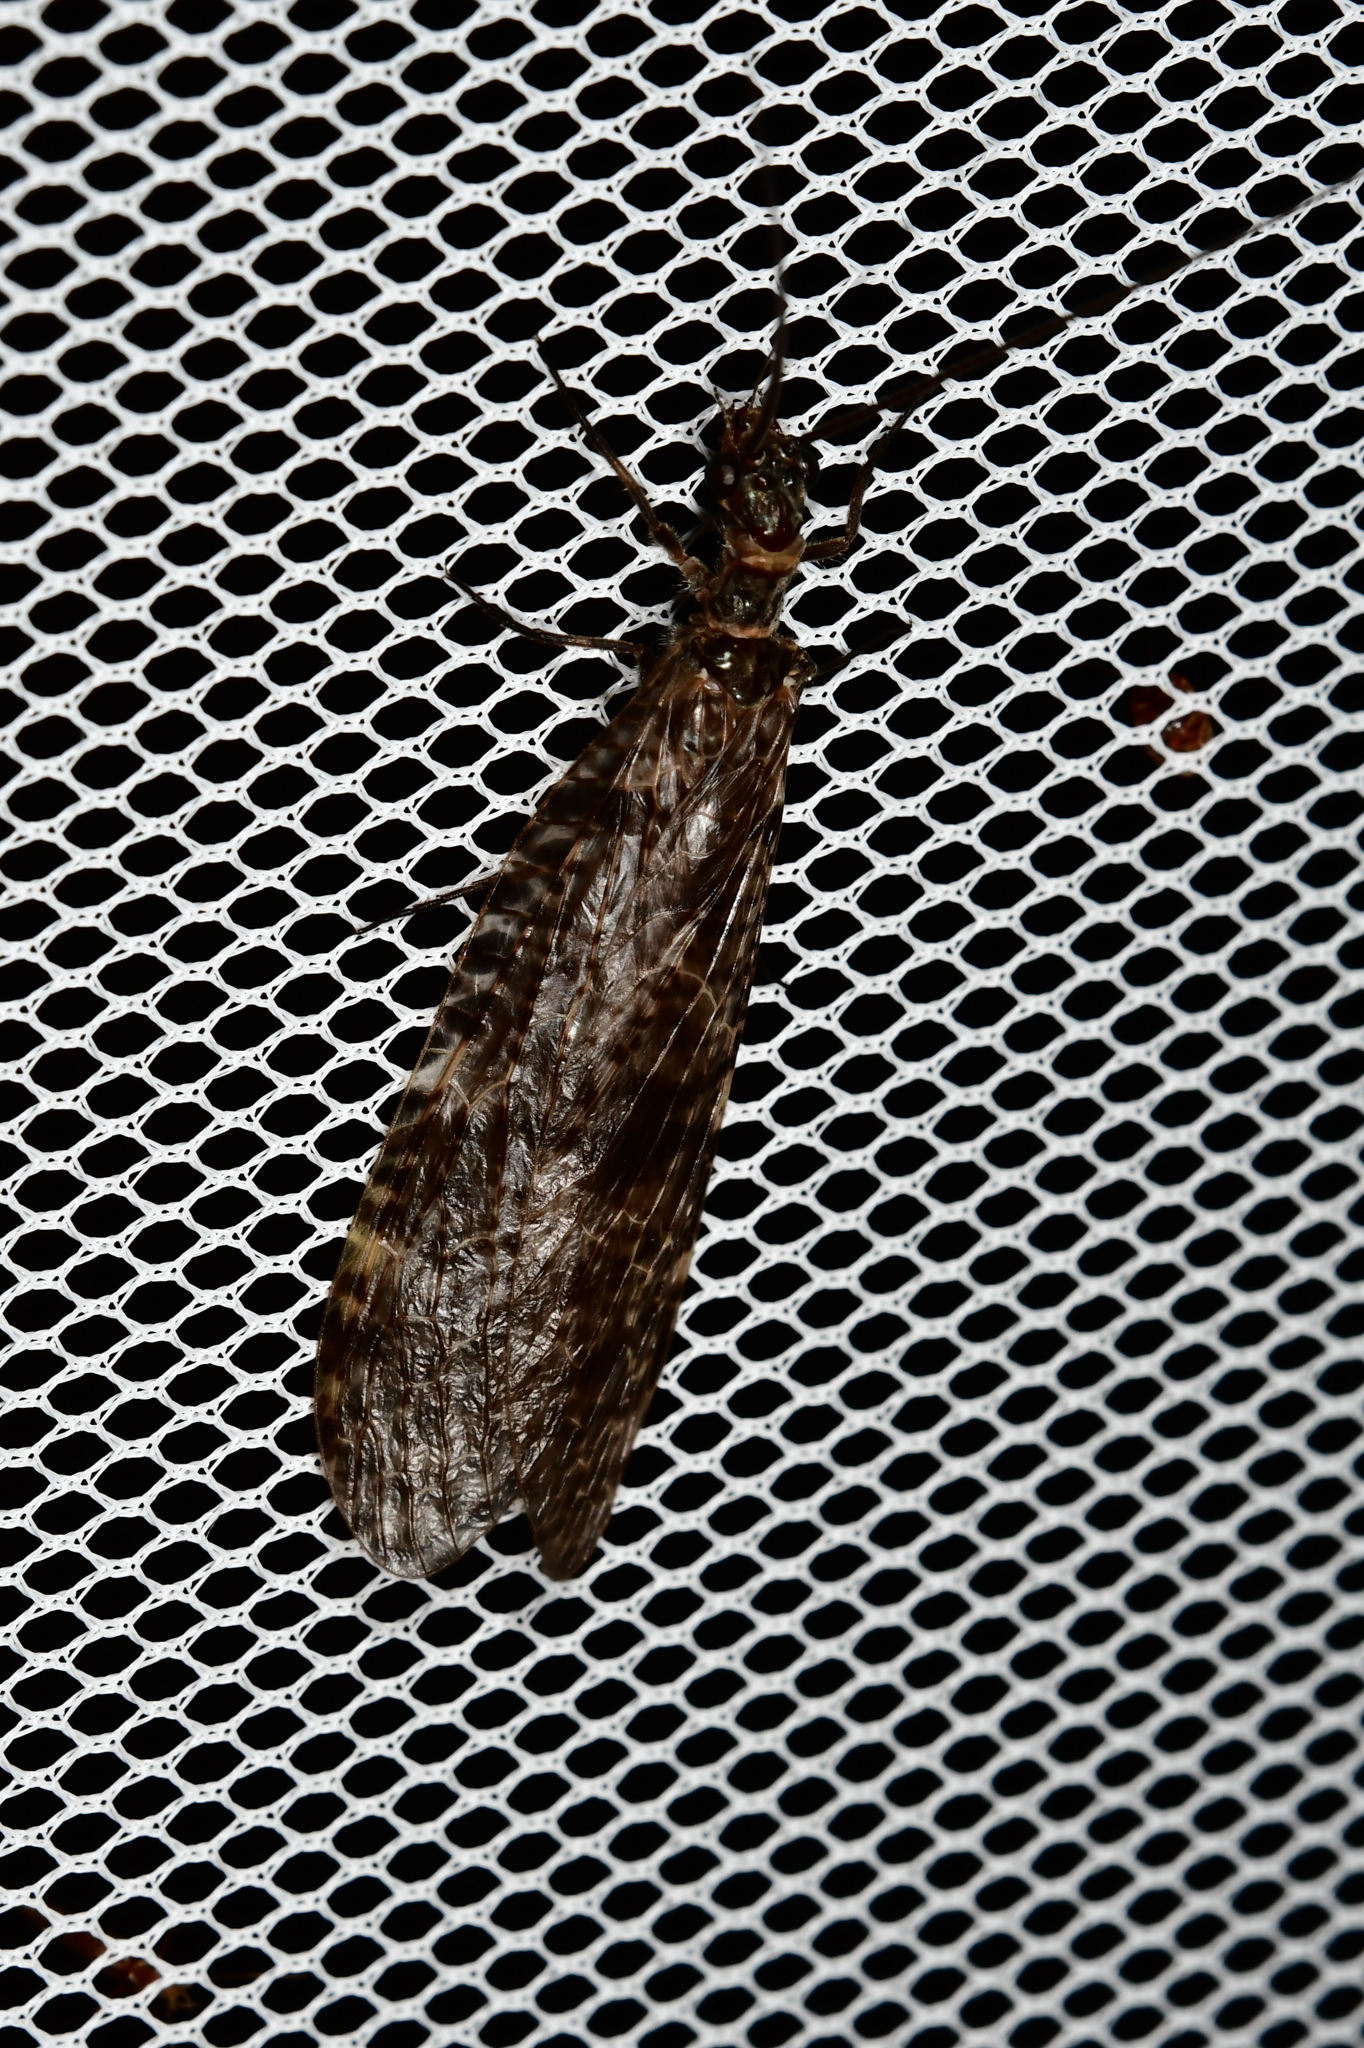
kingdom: Animalia
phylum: Arthropoda
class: Insecta
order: Megaloptera
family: Corydalidae
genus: Archichauliodes
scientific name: Archichauliodes diversus
